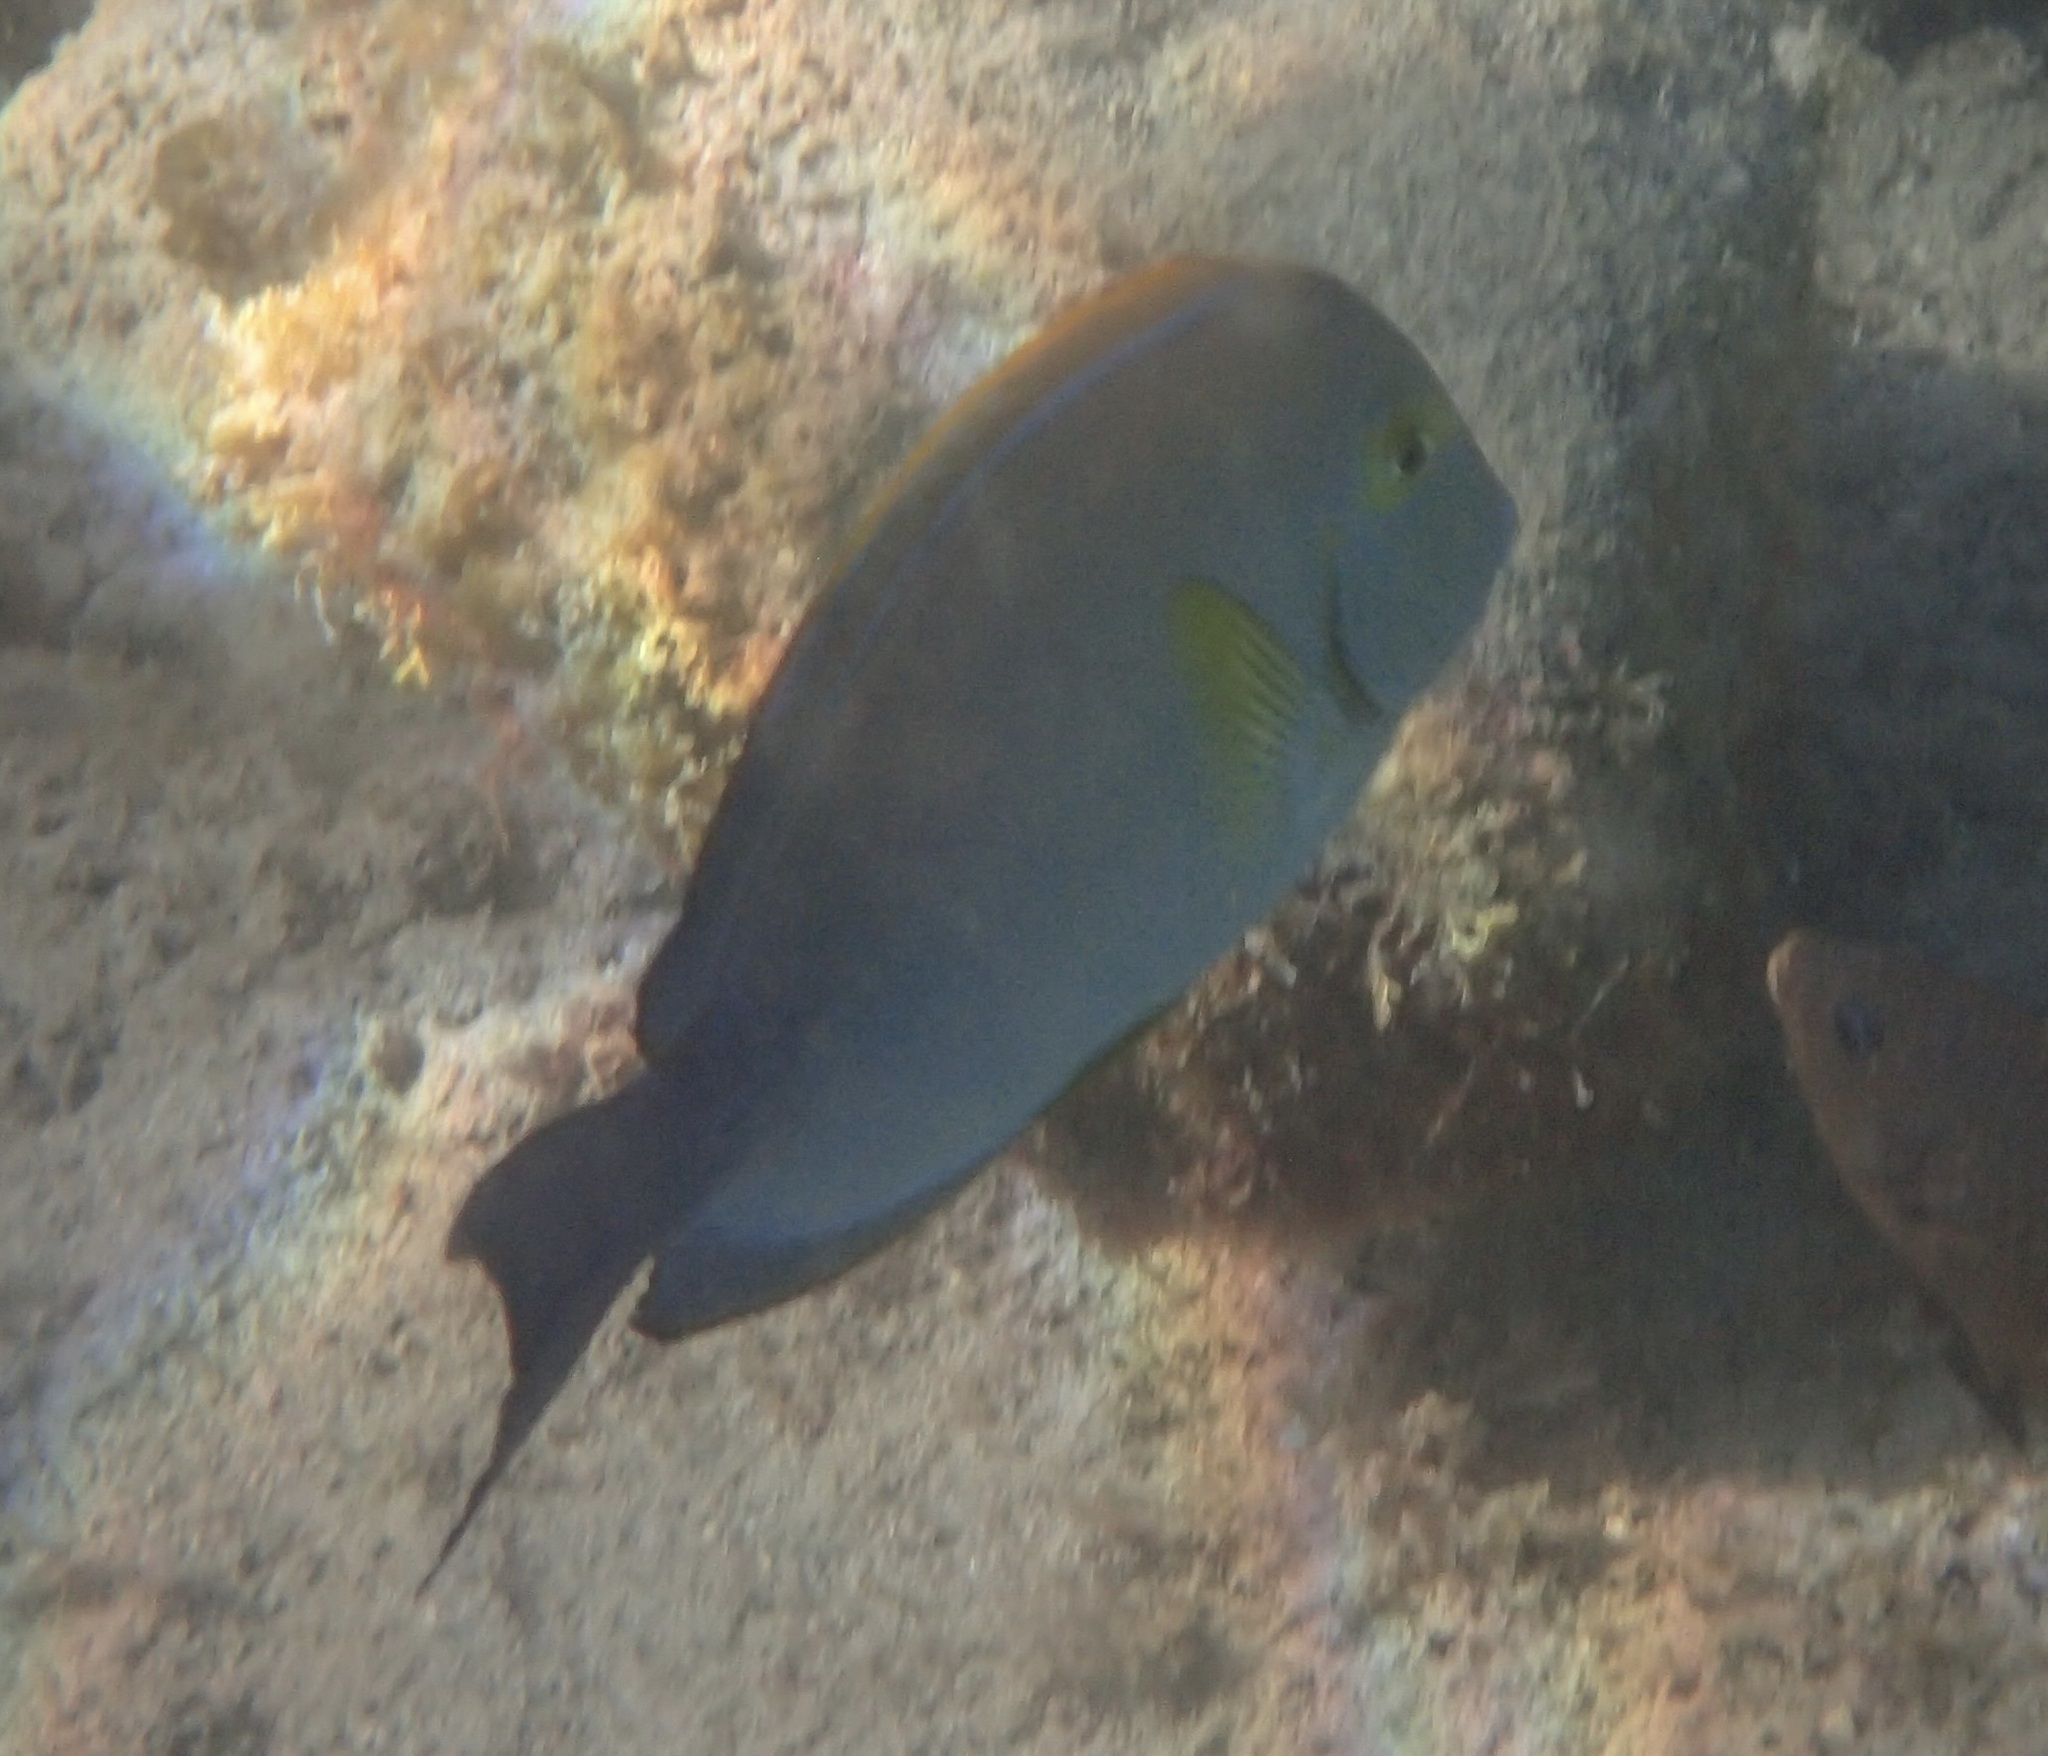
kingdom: Animalia
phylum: Chordata
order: Perciformes
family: Acanthuridae
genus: Acanthurus
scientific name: Acanthurus xanthopterus
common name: Cuvier's surgeonfish
